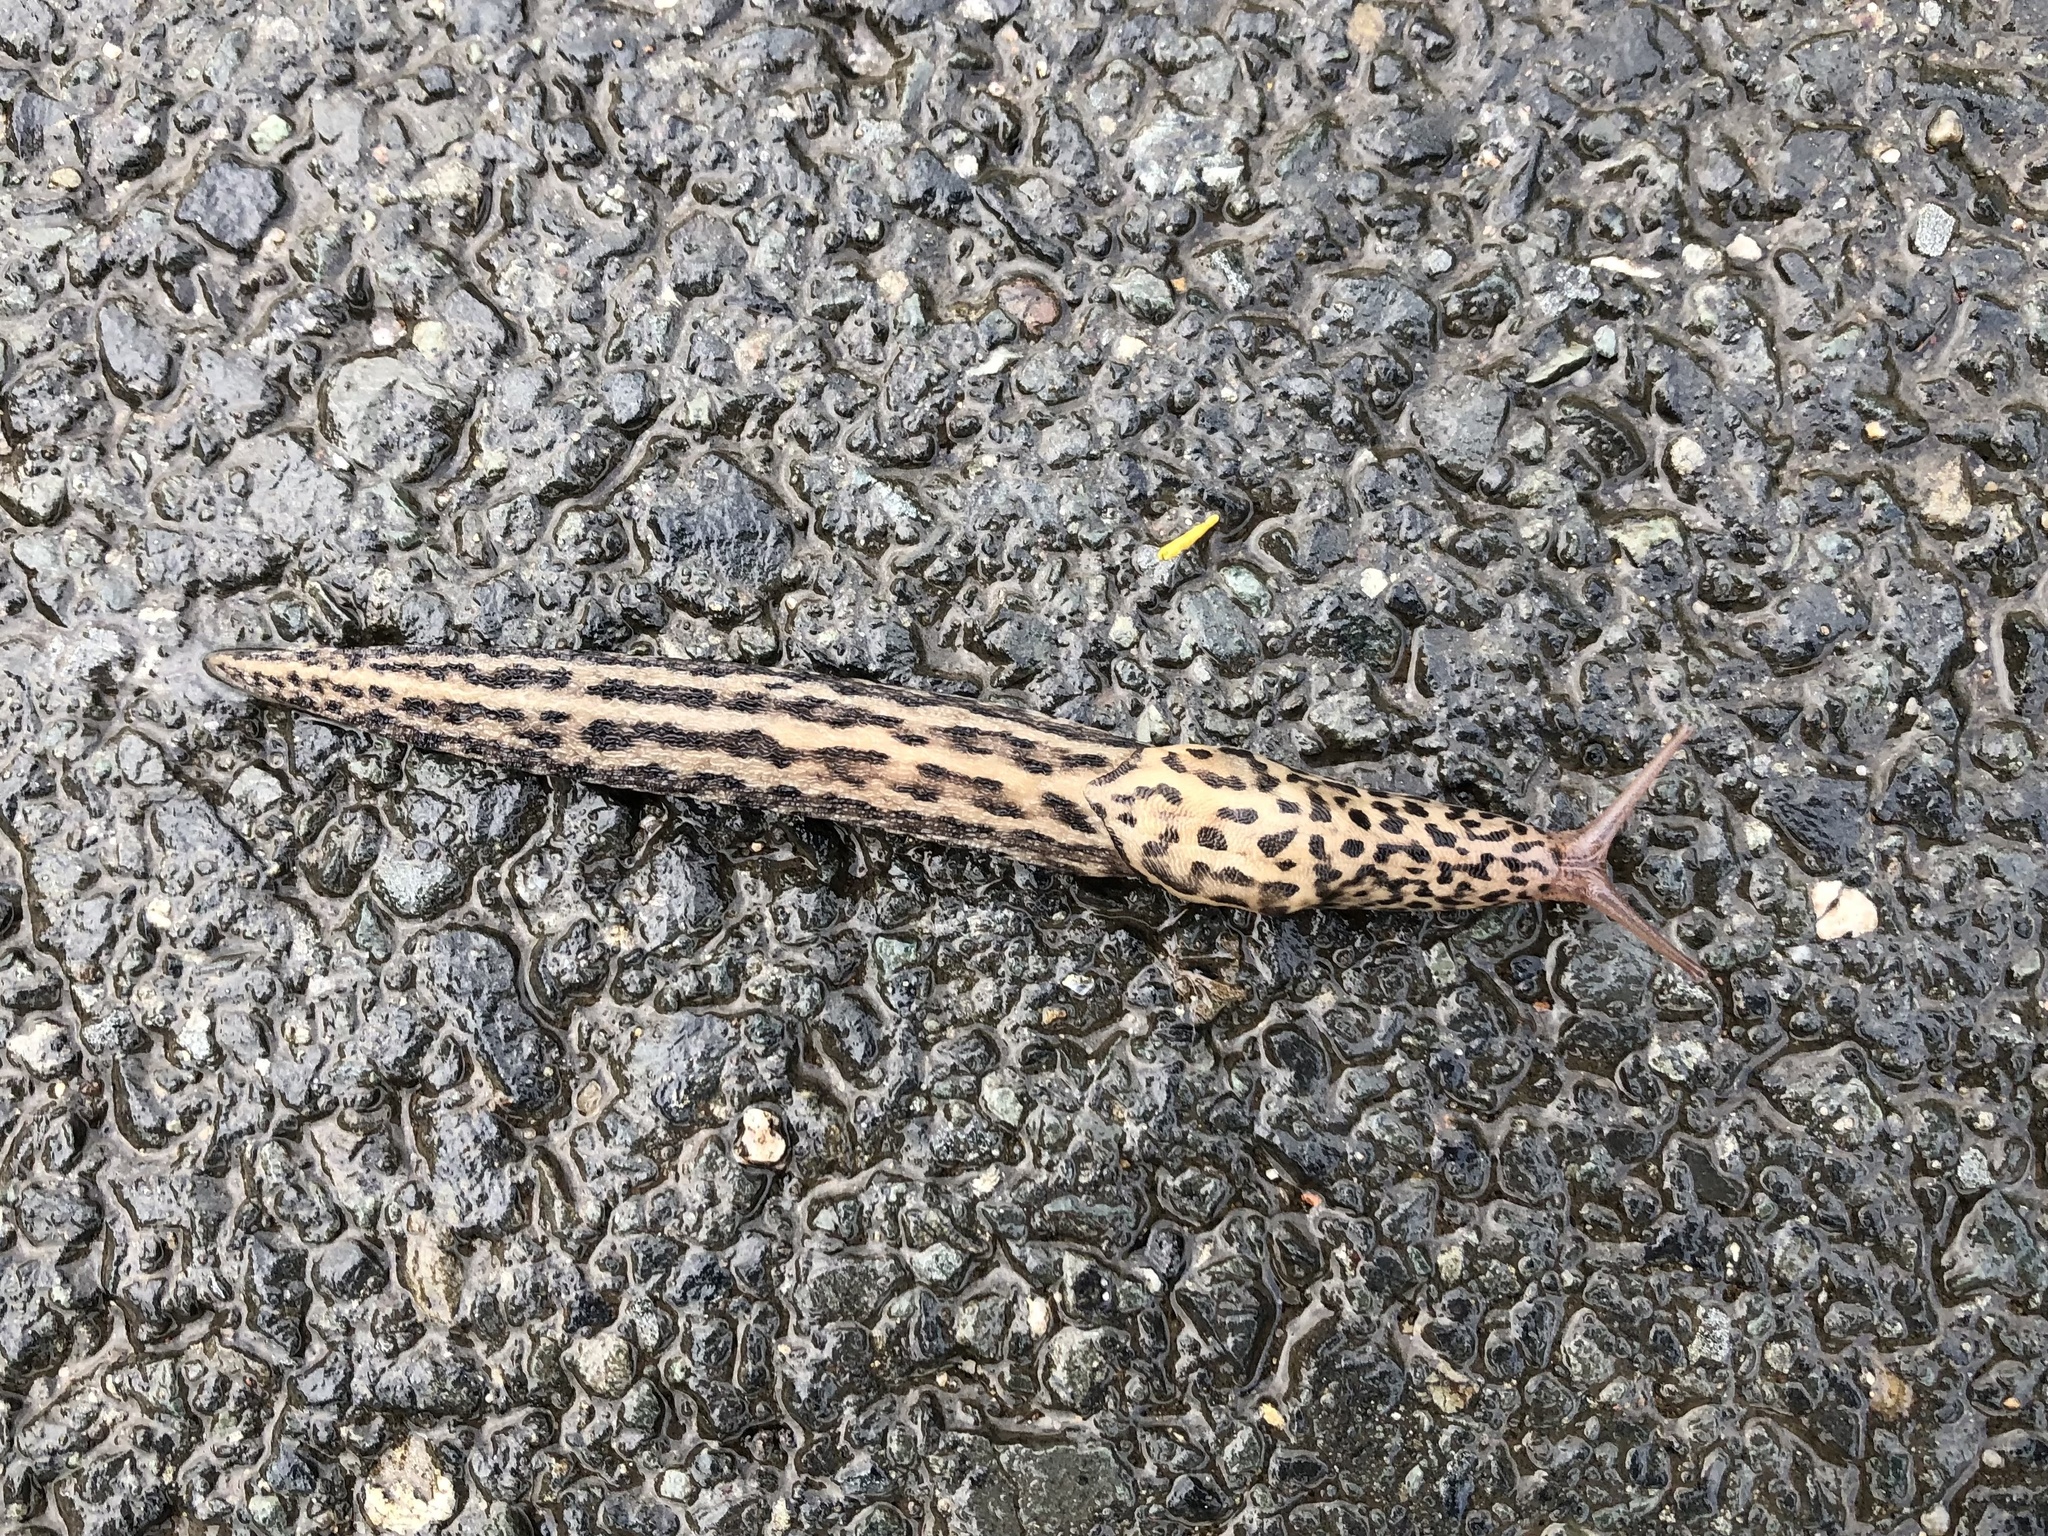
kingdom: Animalia
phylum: Mollusca
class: Gastropoda
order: Stylommatophora
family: Limacidae
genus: Limax
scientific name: Limax maximus
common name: Great grey slug
